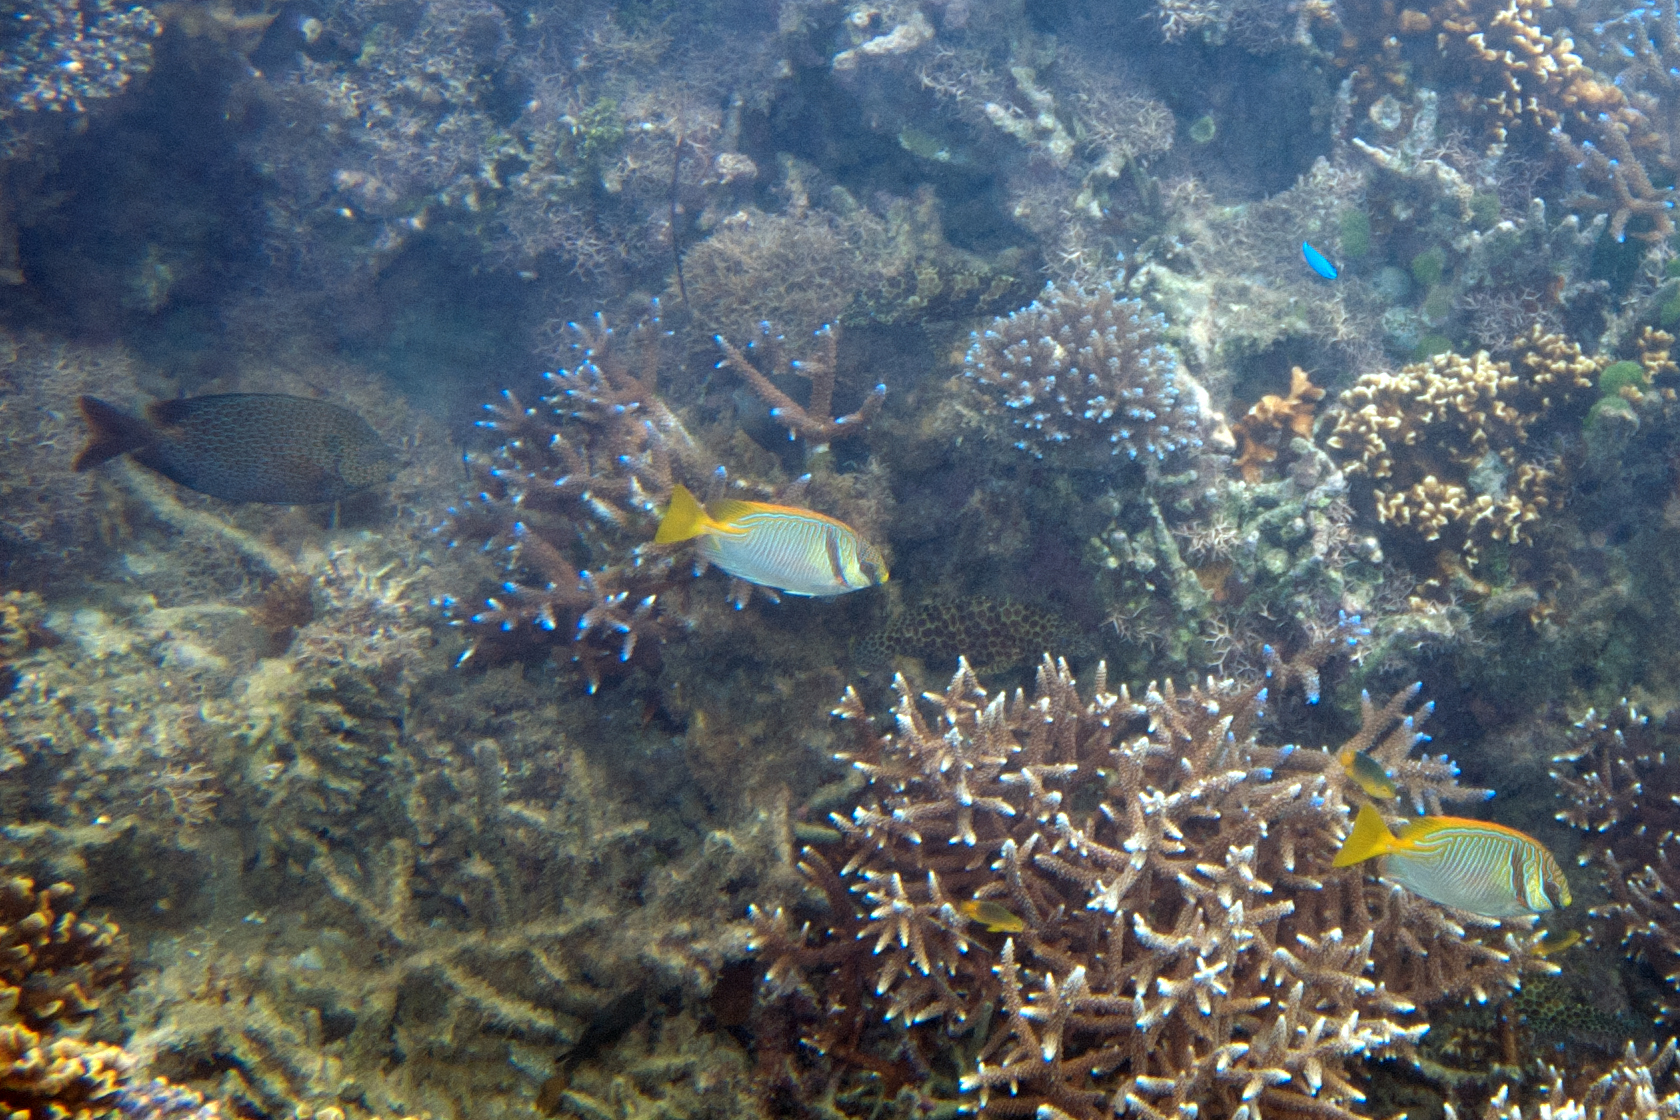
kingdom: Animalia
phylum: Chordata
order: Perciformes
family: Siganidae
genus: Siganus
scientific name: Siganus doliatus
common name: Barred spinefoot
